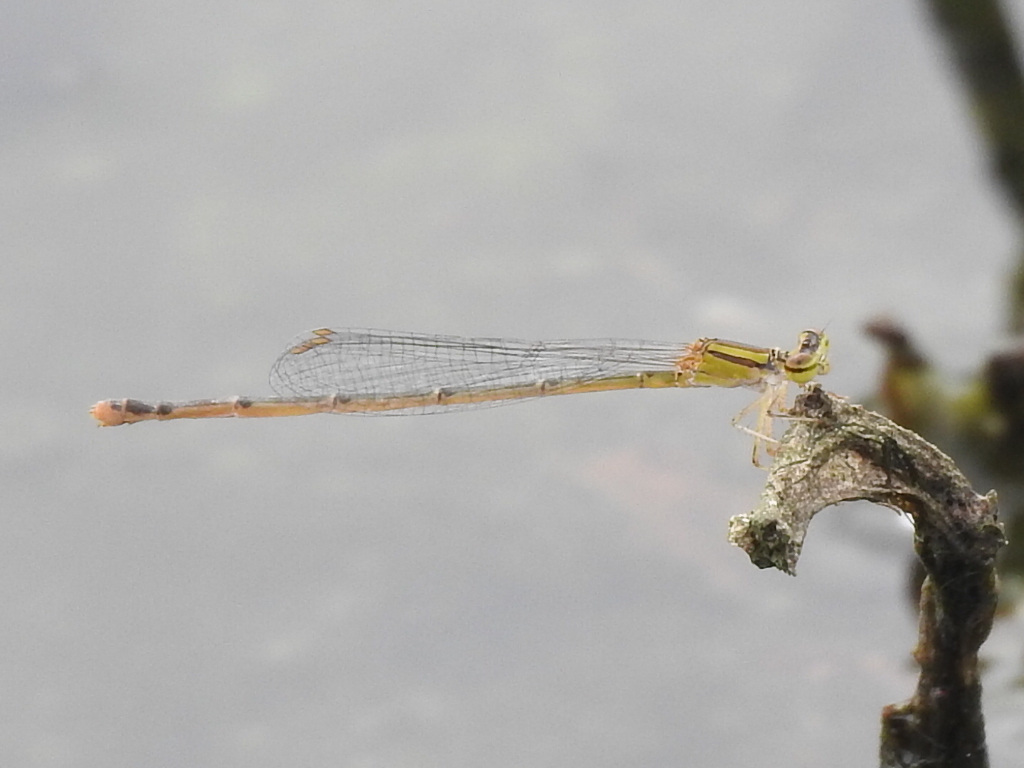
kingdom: Animalia
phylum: Arthropoda
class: Insecta
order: Odonata
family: Coenagrionidae
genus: Enallagma
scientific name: Enallagma signatum
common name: Orange bluet
